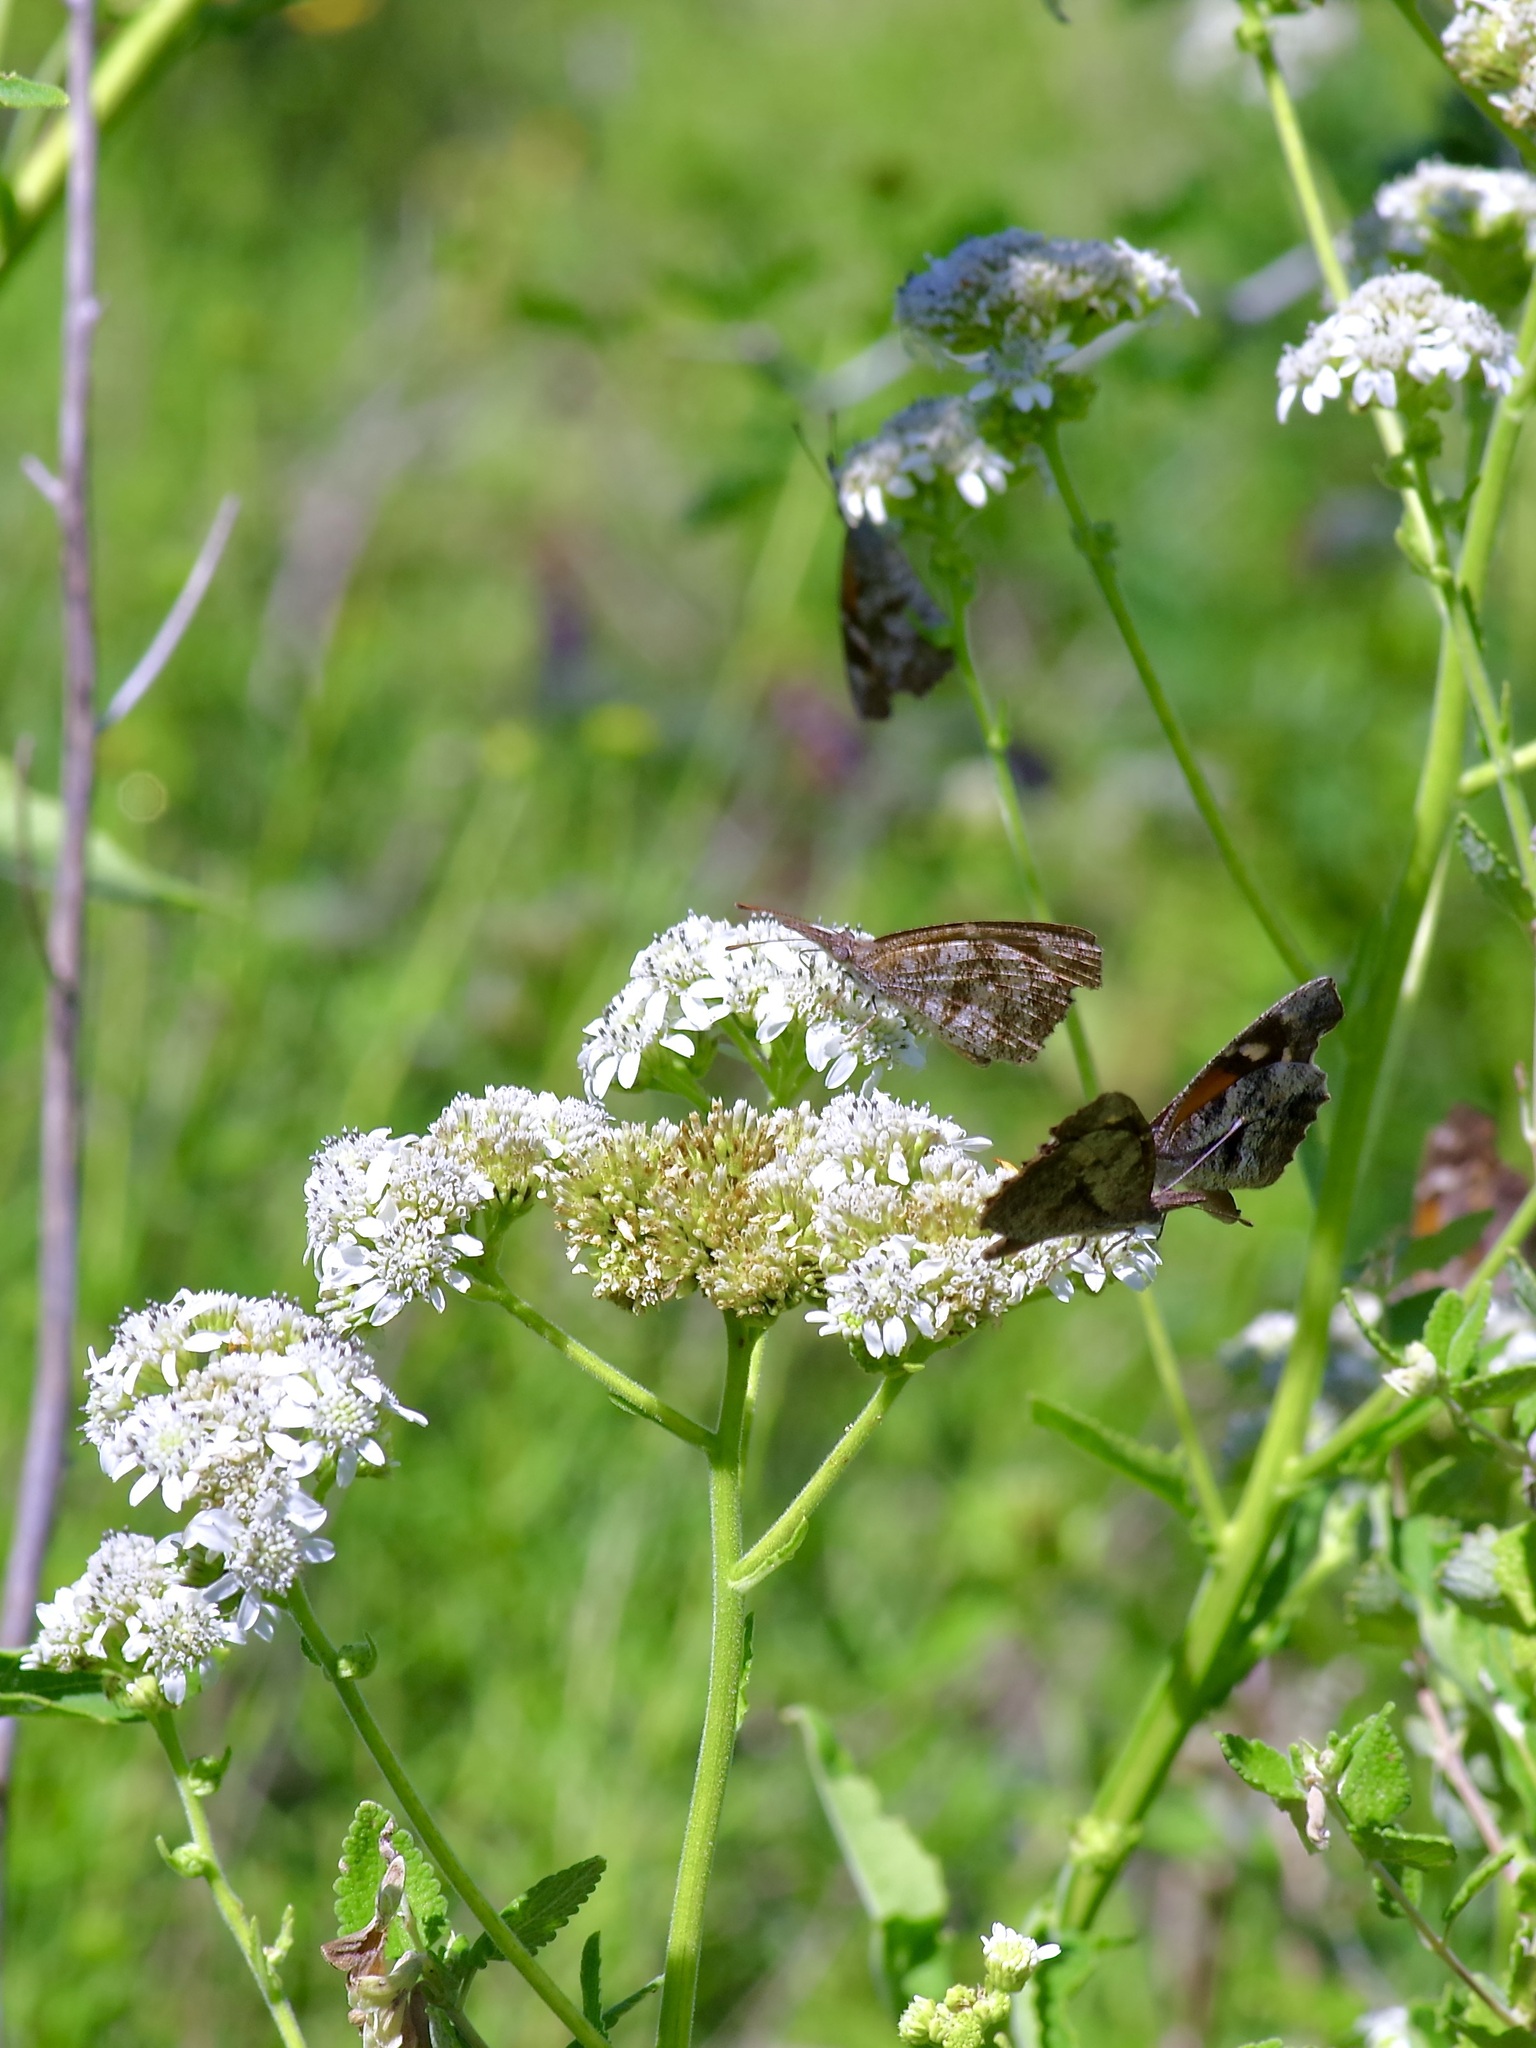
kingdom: Animalia
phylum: Arthropoda
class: Insecta
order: Lepidoptera
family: Nymphalidae
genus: Libytheana
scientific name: Libytheana carinenta
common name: American snout
